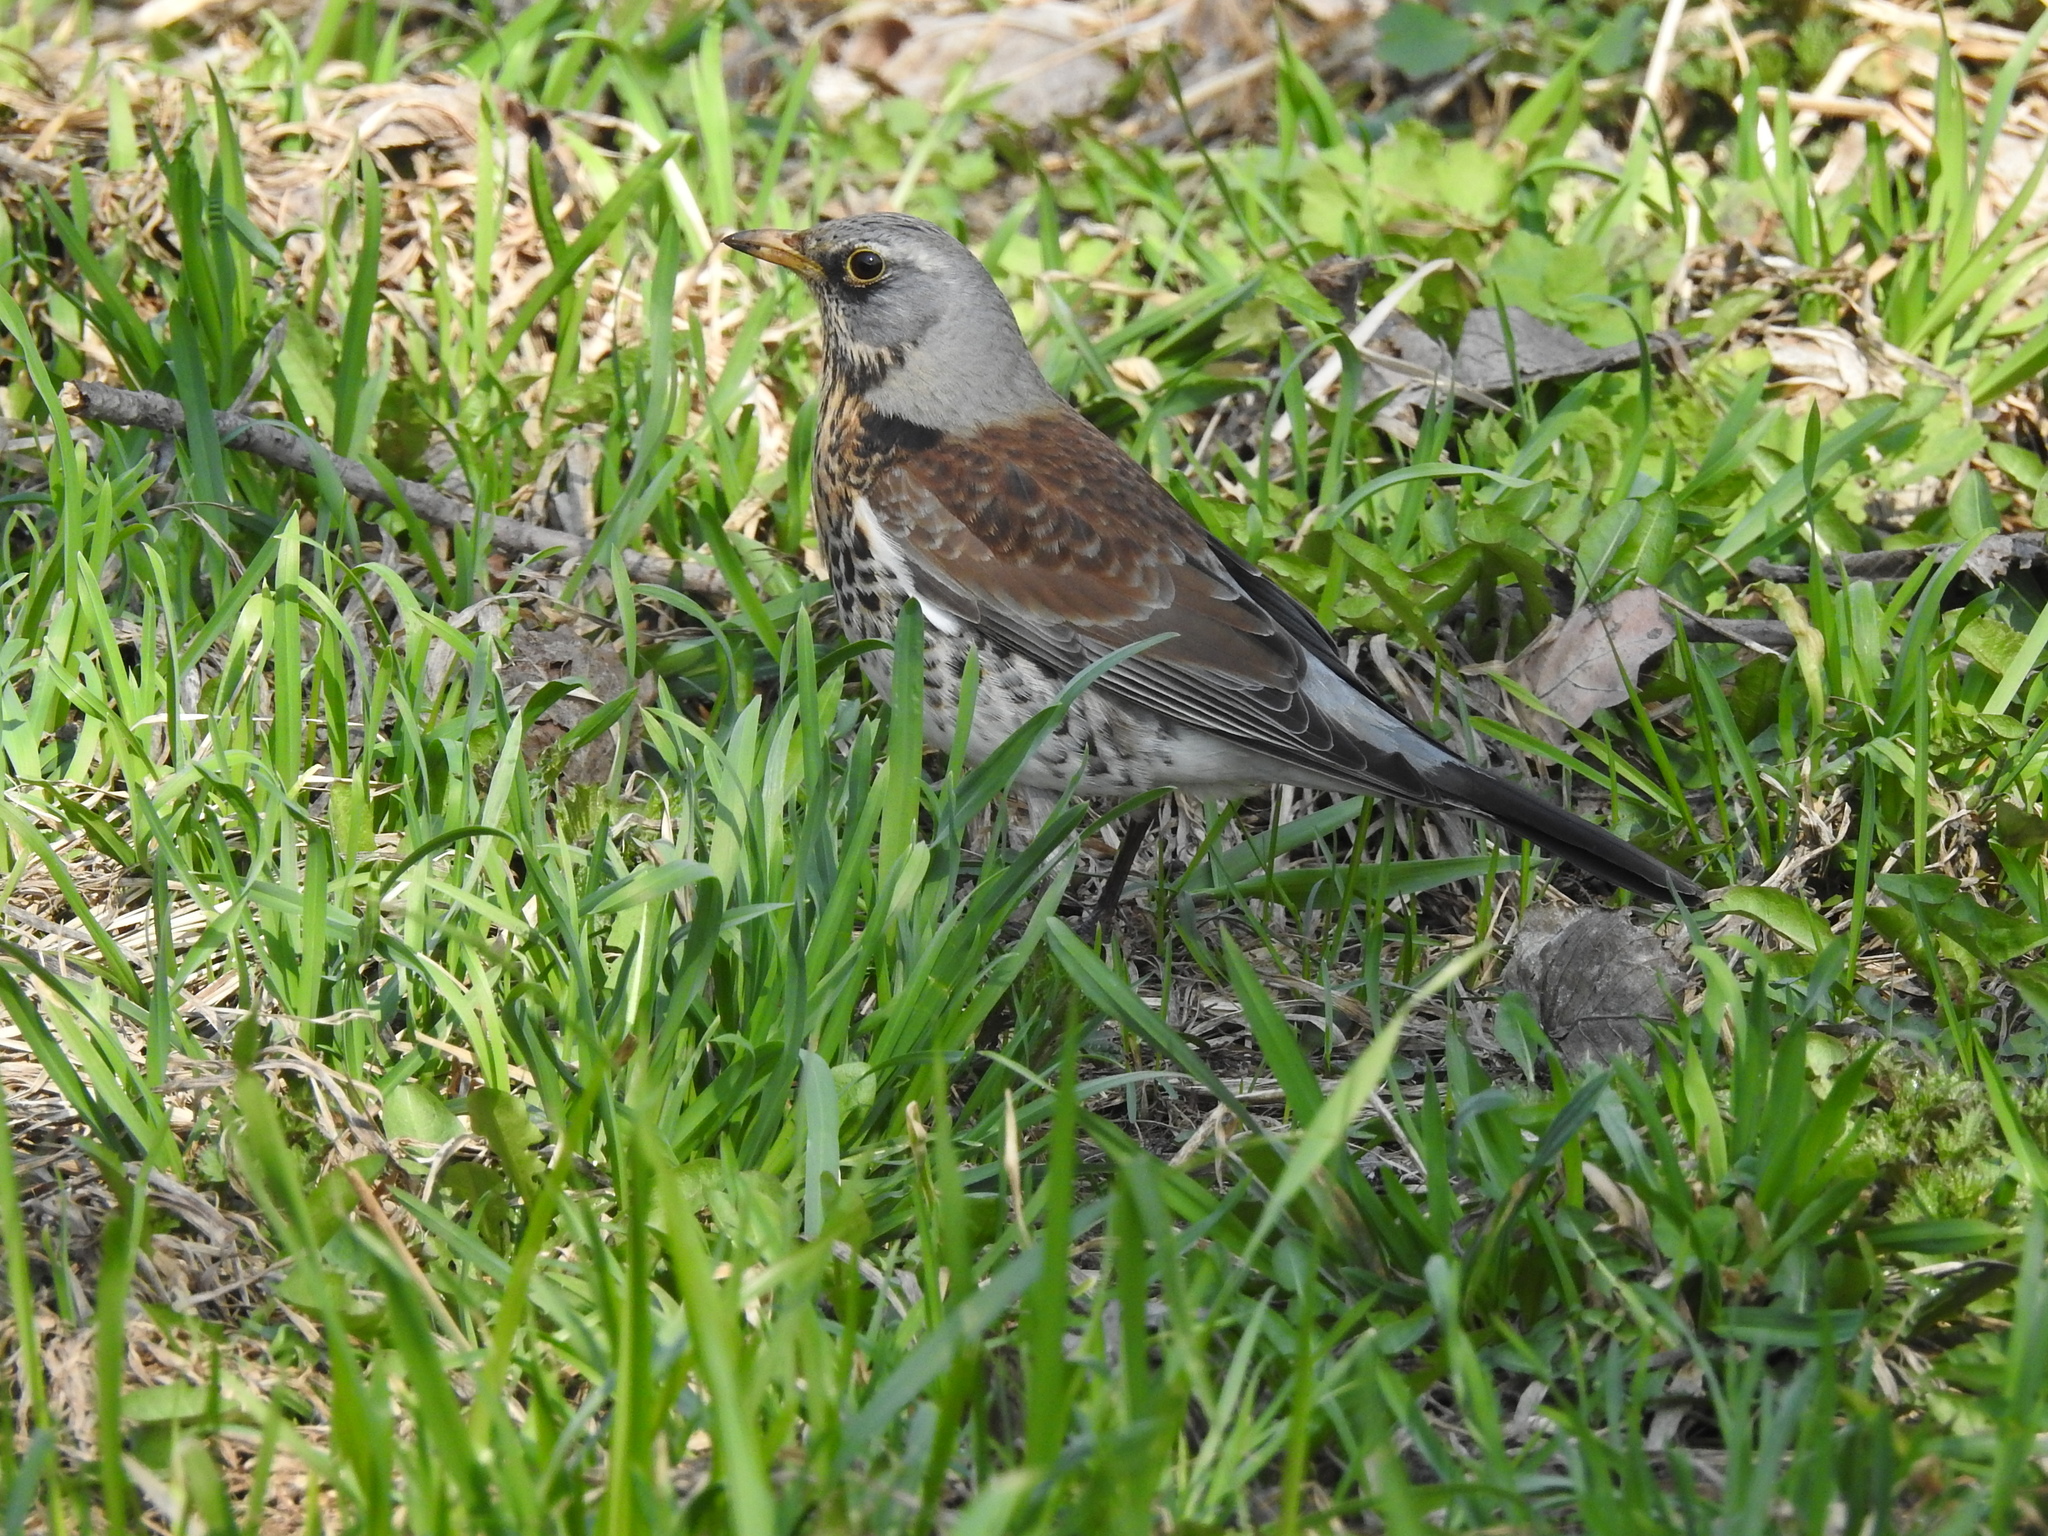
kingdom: Animalia
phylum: Chordata
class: Aves
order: Passeriformes
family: Turdidae
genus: Turdus
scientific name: Turdus pilaris
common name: Fieldfare
